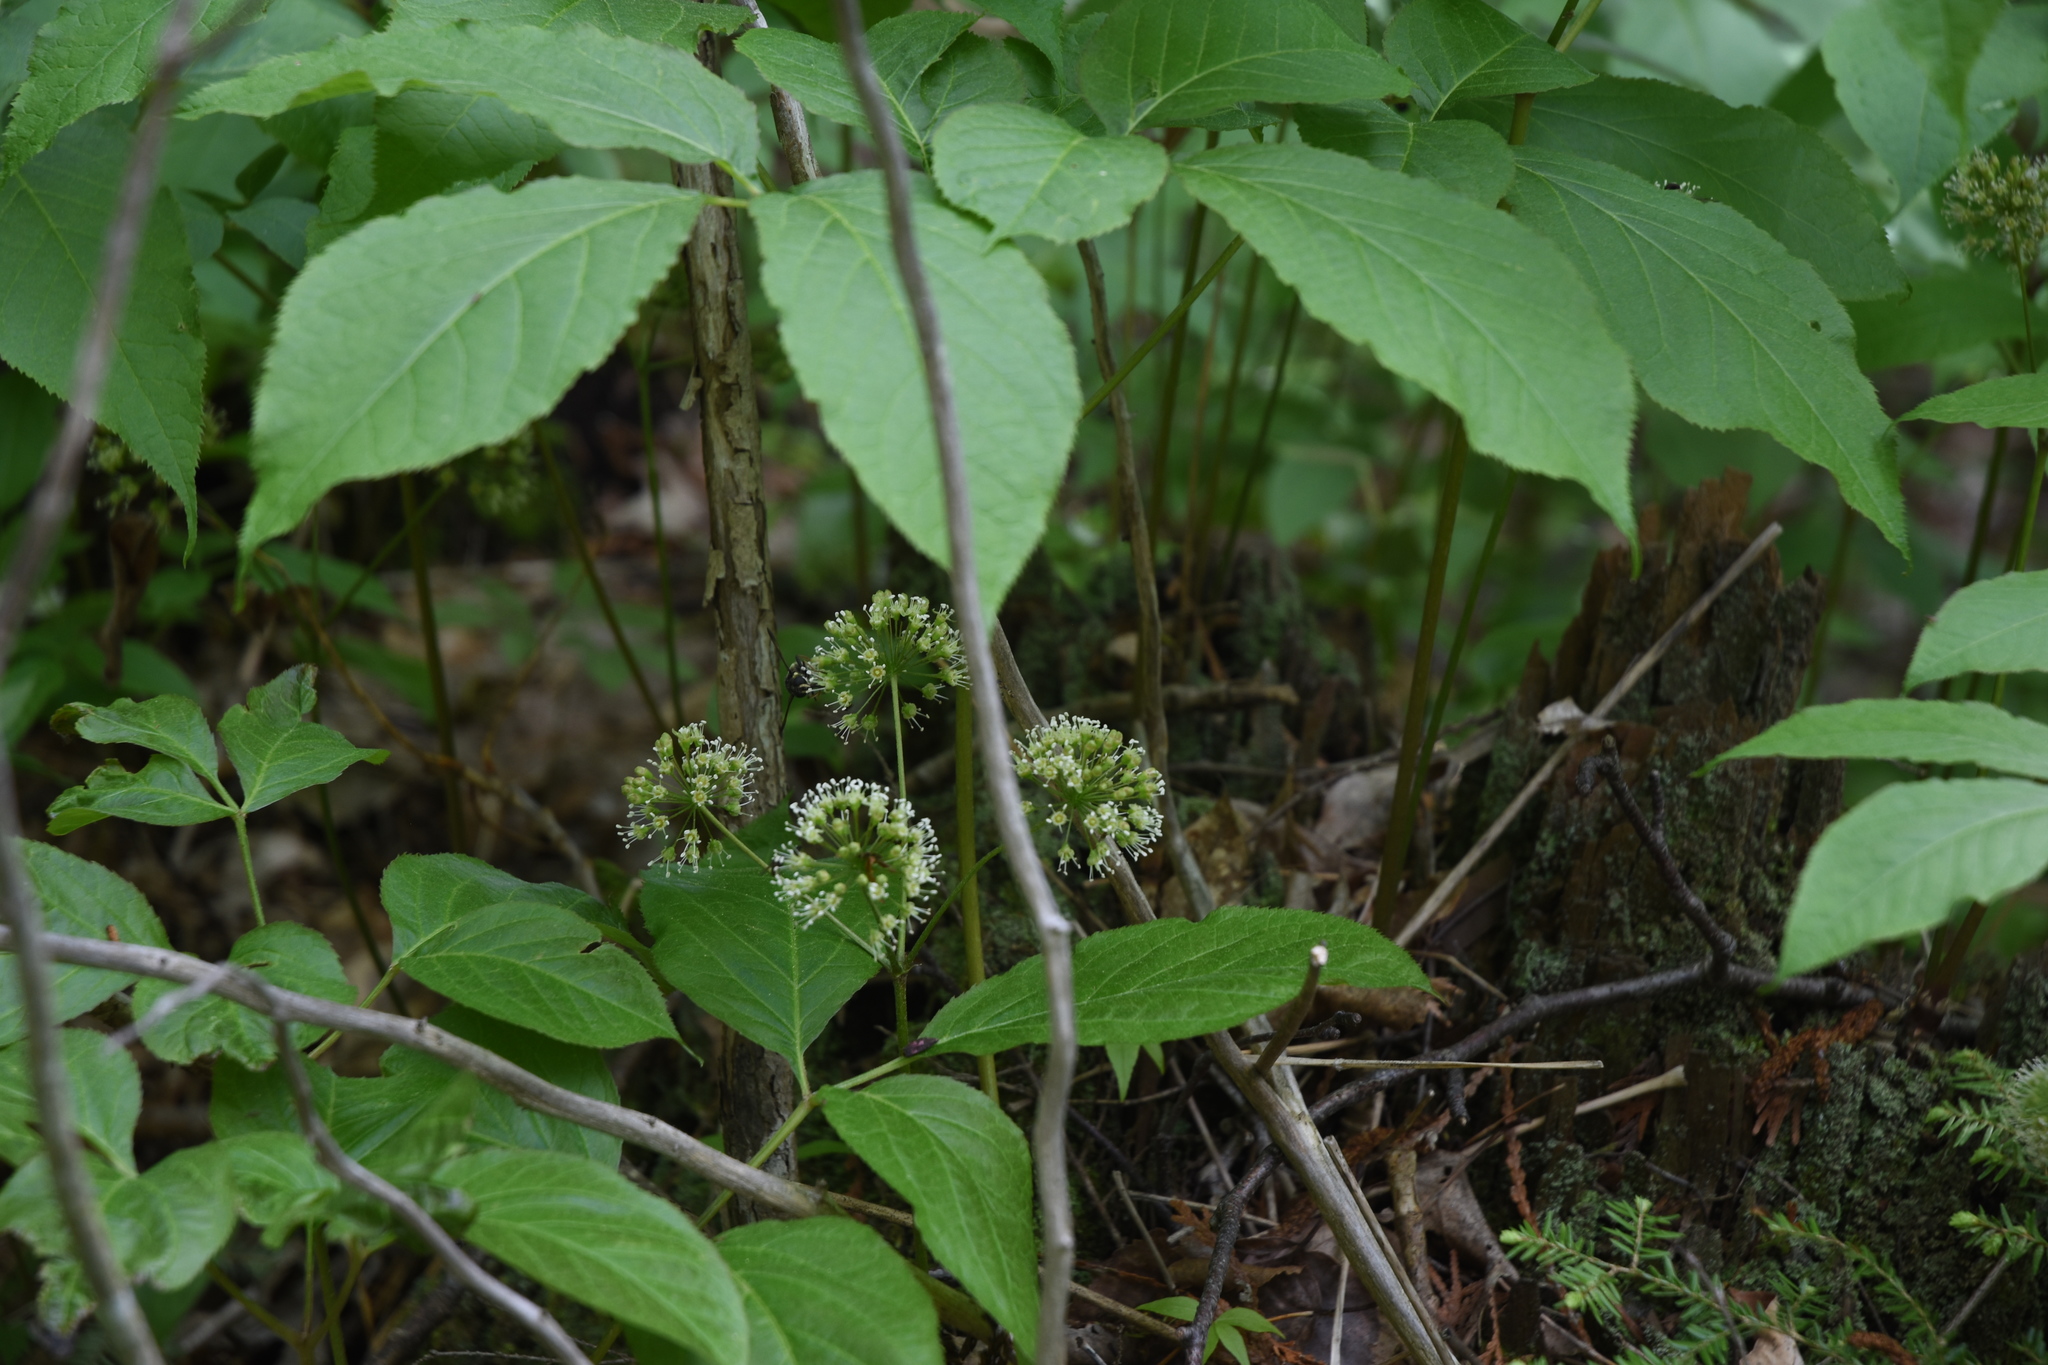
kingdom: Plantae
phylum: Tracheophyta
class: Magnoliopsida
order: Apiales
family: Araliaceae
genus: Aralia
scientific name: Aralia nudicaulis
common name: Wild sarsaparilla
